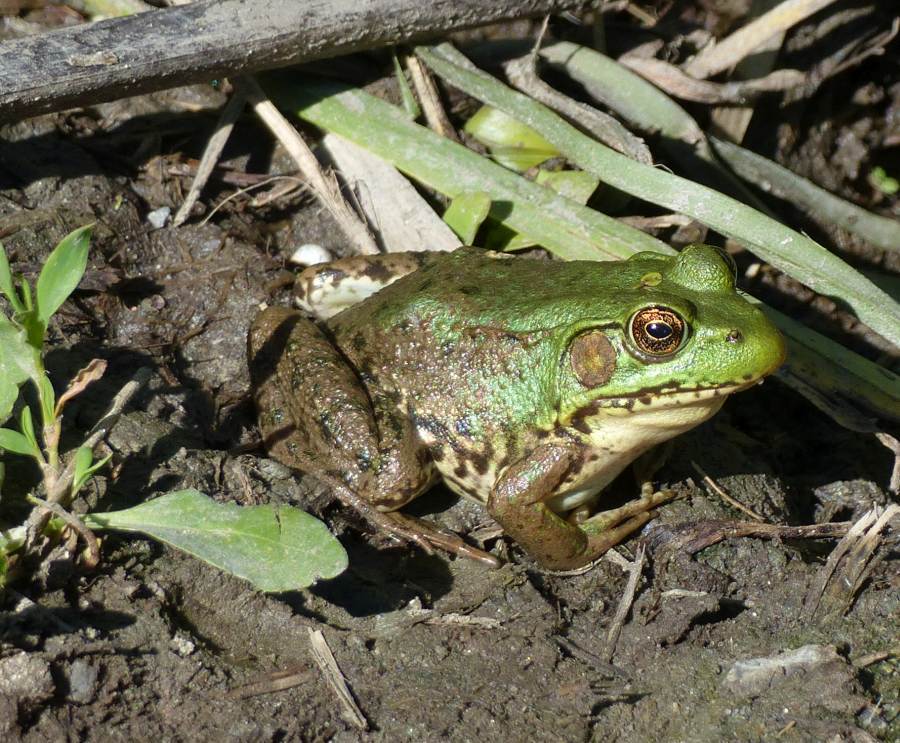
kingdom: Animalia
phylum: Chordata
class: Amphibia
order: Anura
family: Ranidae
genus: Lithobates
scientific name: Lithobates clamitans
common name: Green frog
